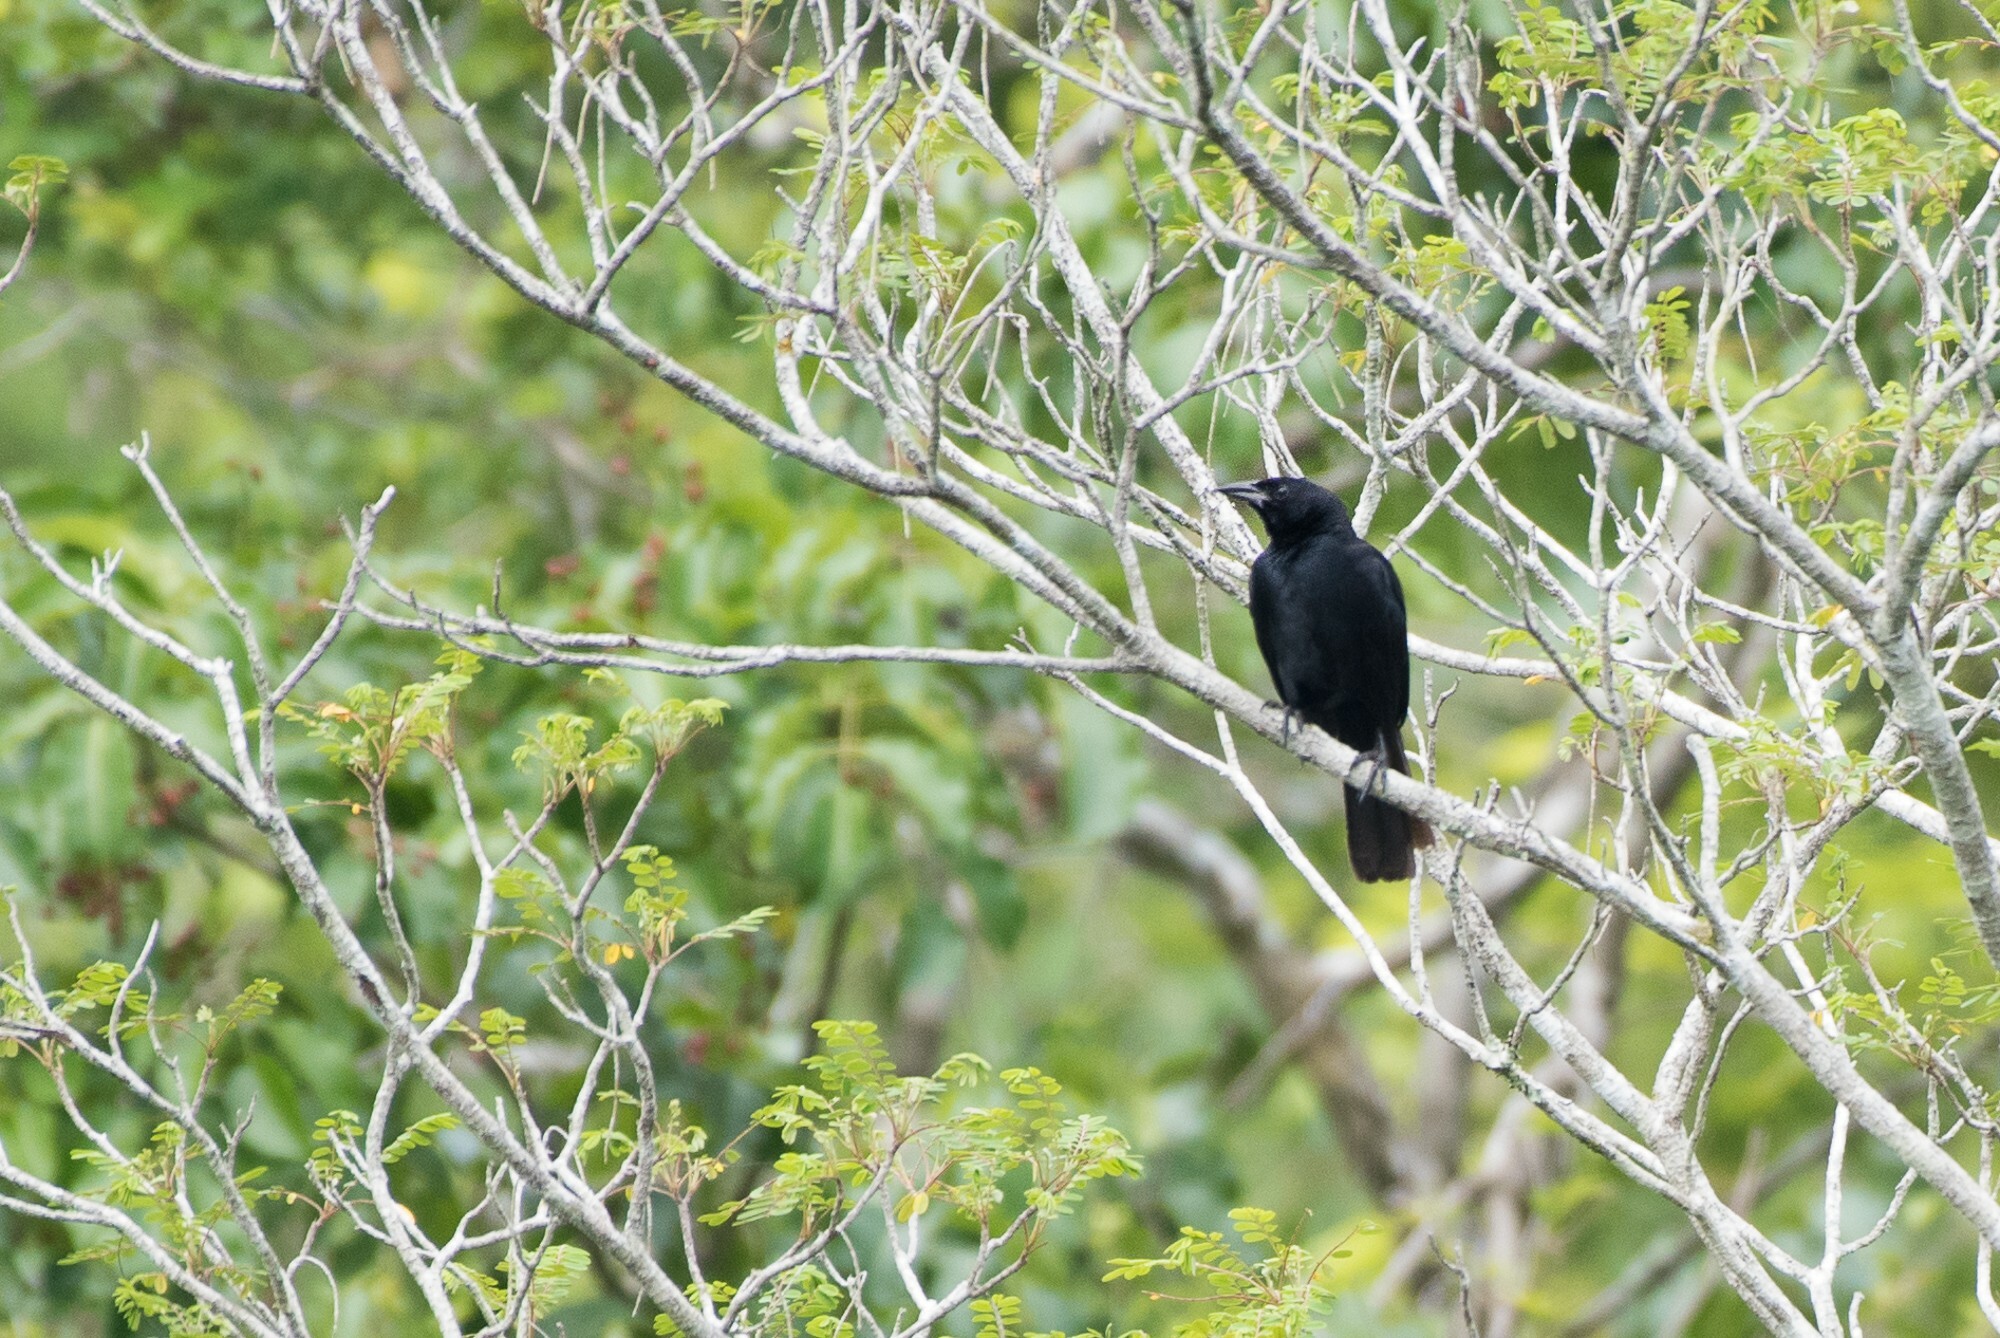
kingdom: Animalia
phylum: Chordata
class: Aves
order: Passeriformes
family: Icteridae
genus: Dives
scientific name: Dives dives
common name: Melodious blackbird
